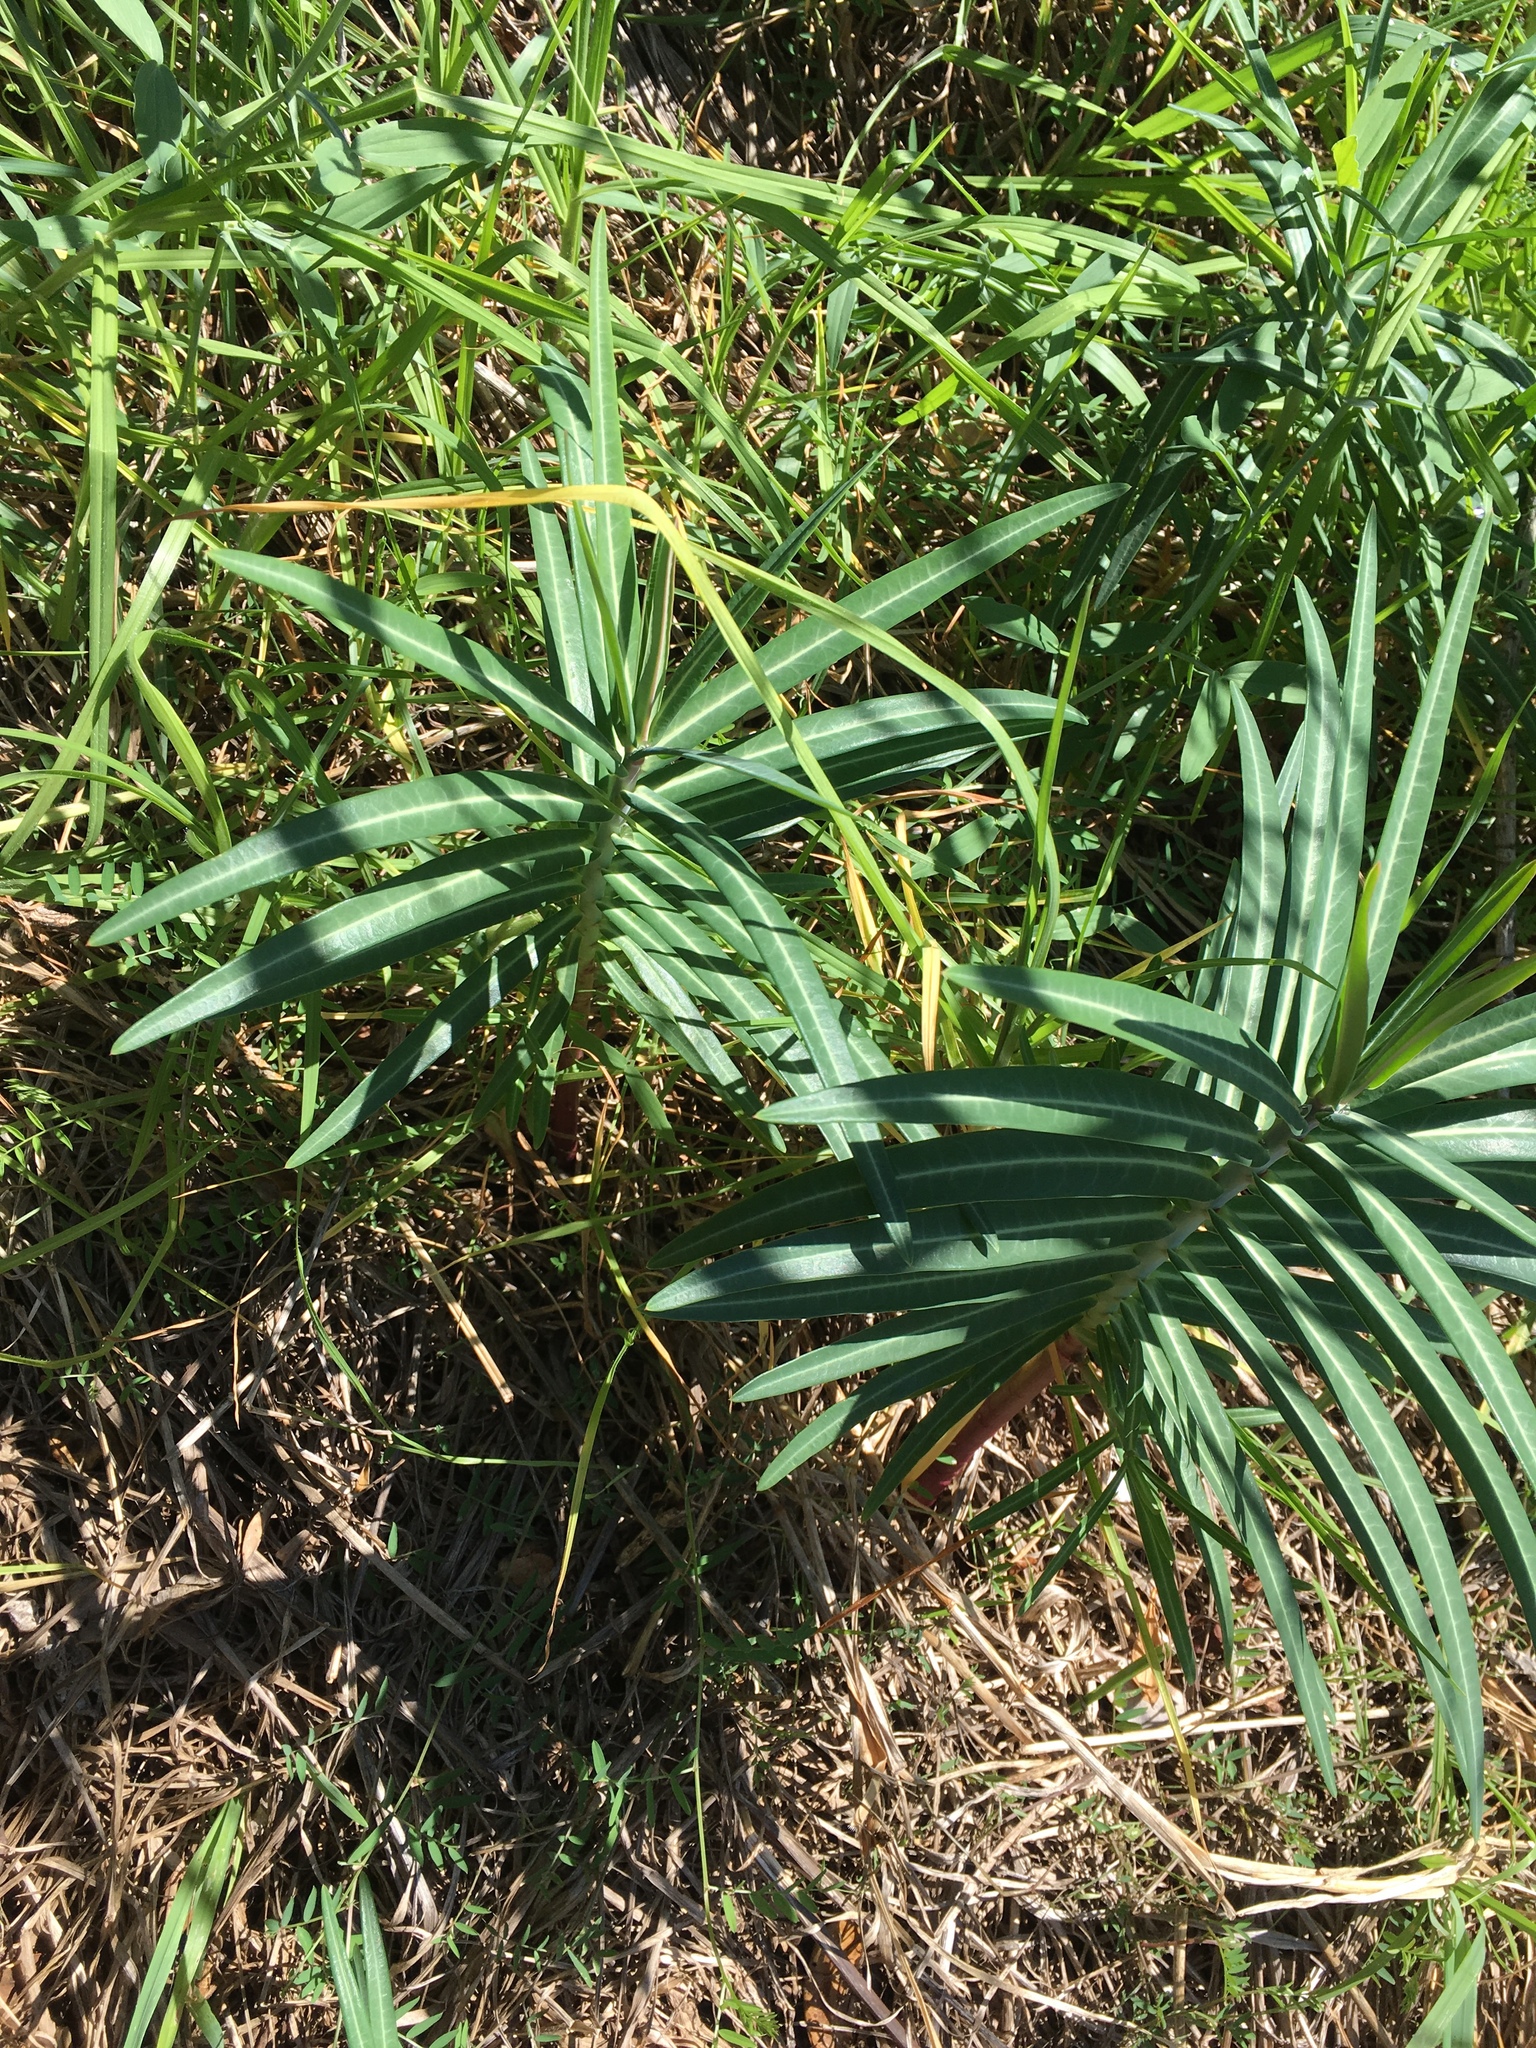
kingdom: Plantae
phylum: Tracheophyta
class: Magnoliopsida
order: Malpighiales
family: Euphorbiaceae
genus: Euphorbia
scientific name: Euphorbia lathyris
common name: Caper spurge
